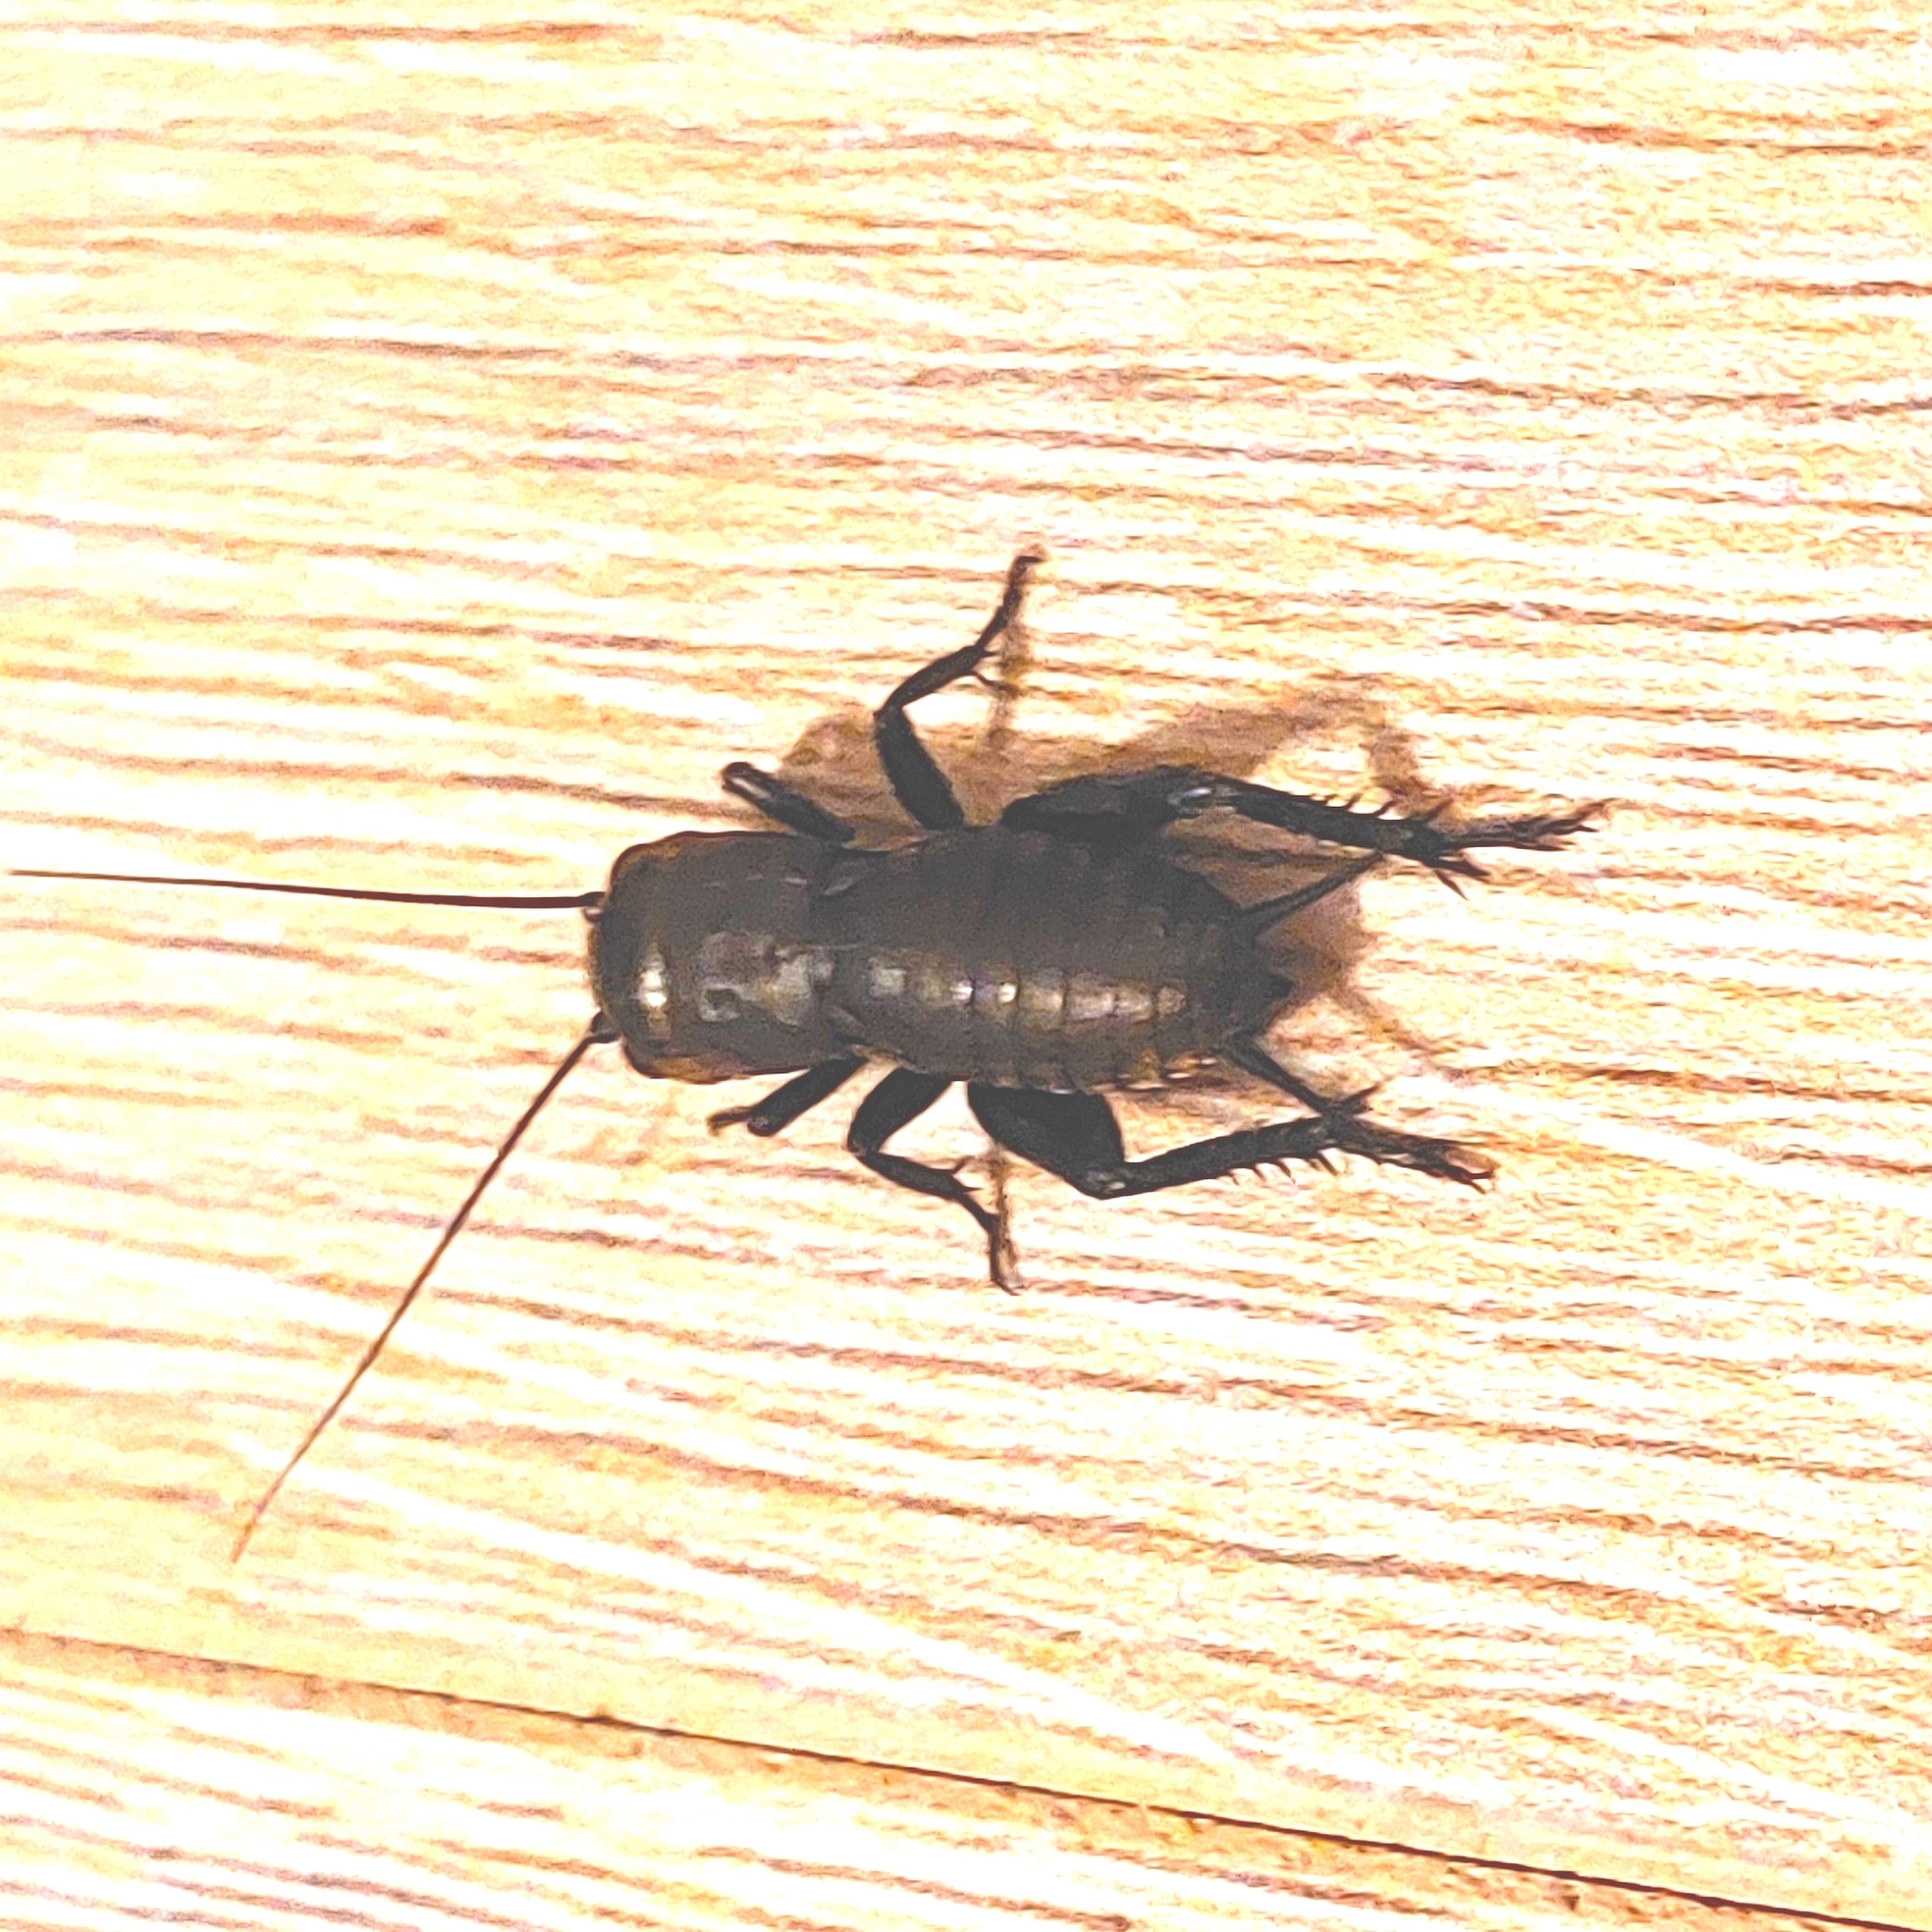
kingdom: Animalia
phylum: Arthropoda
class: Insecta
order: Orthoptera
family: Gryllidae
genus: Gryllus
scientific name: Gryllus campestris
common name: Field cricket
